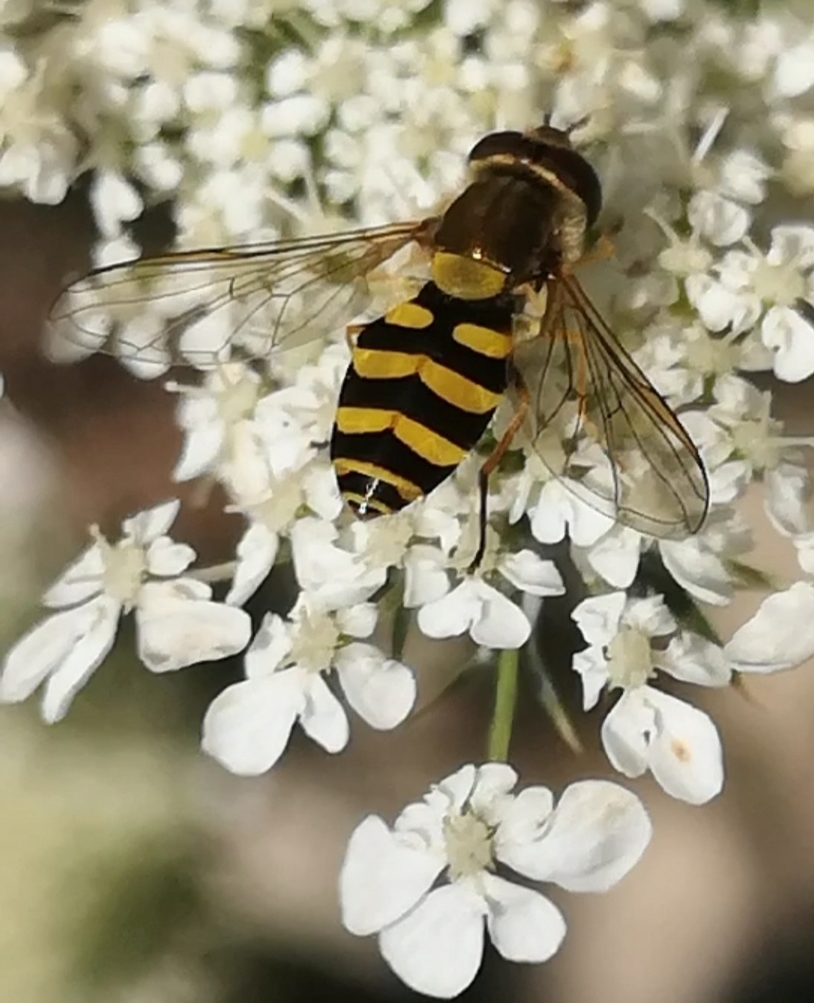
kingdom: Animalia
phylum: Arthropoda
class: Insecta
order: Diptera
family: Syrphidae
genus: Syrphus
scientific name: Syrphus
